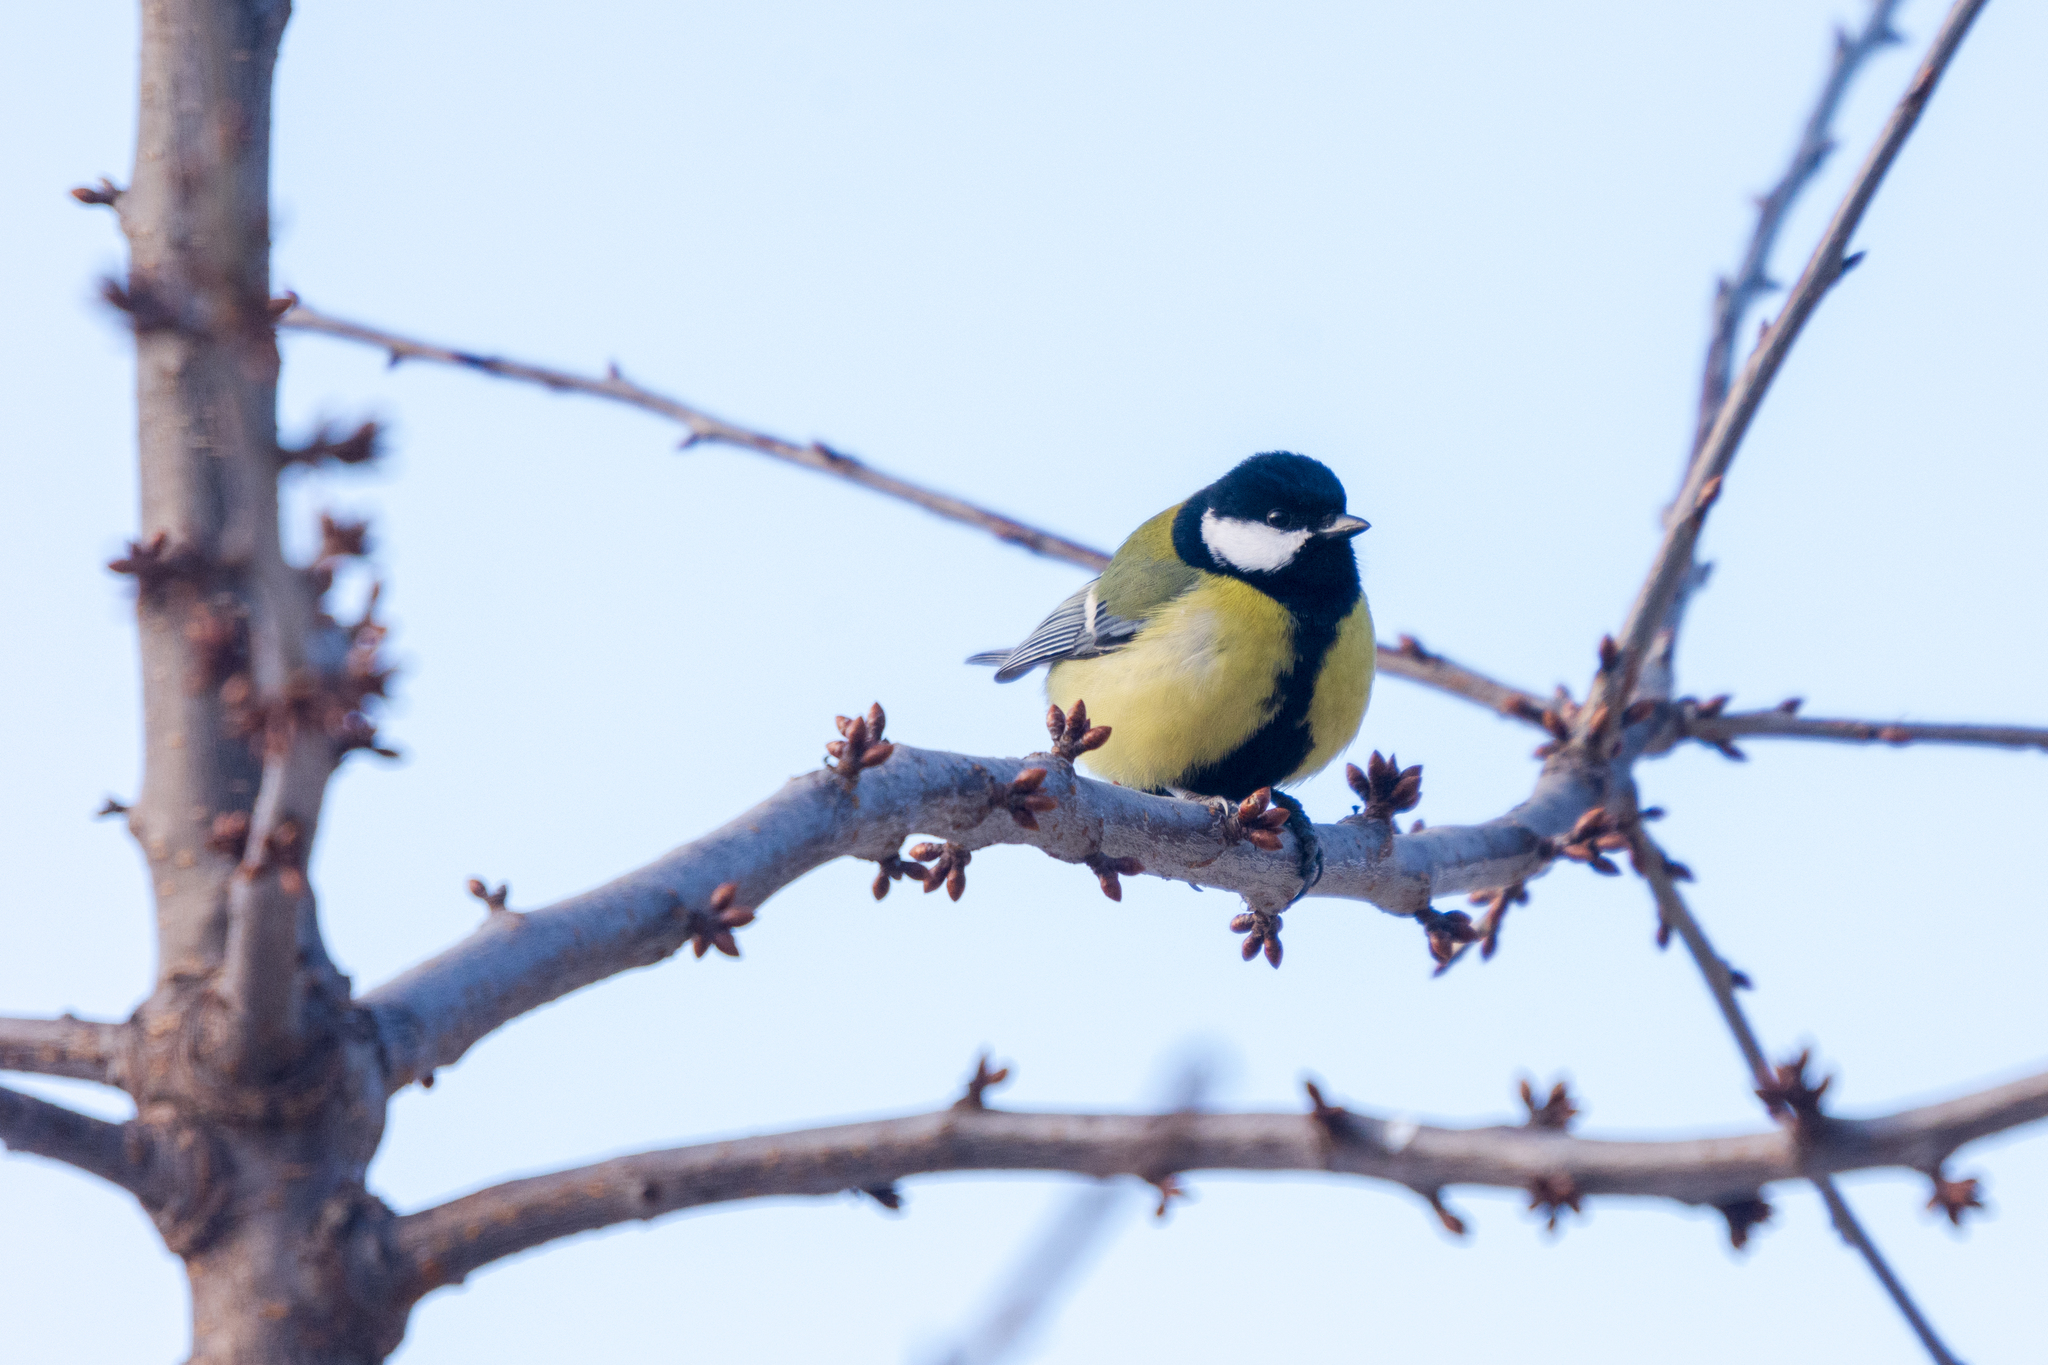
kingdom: Animalia
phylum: Chordata
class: Aves
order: Passeriformes
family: Paridae
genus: Parus
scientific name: Parus major
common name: Great tit
